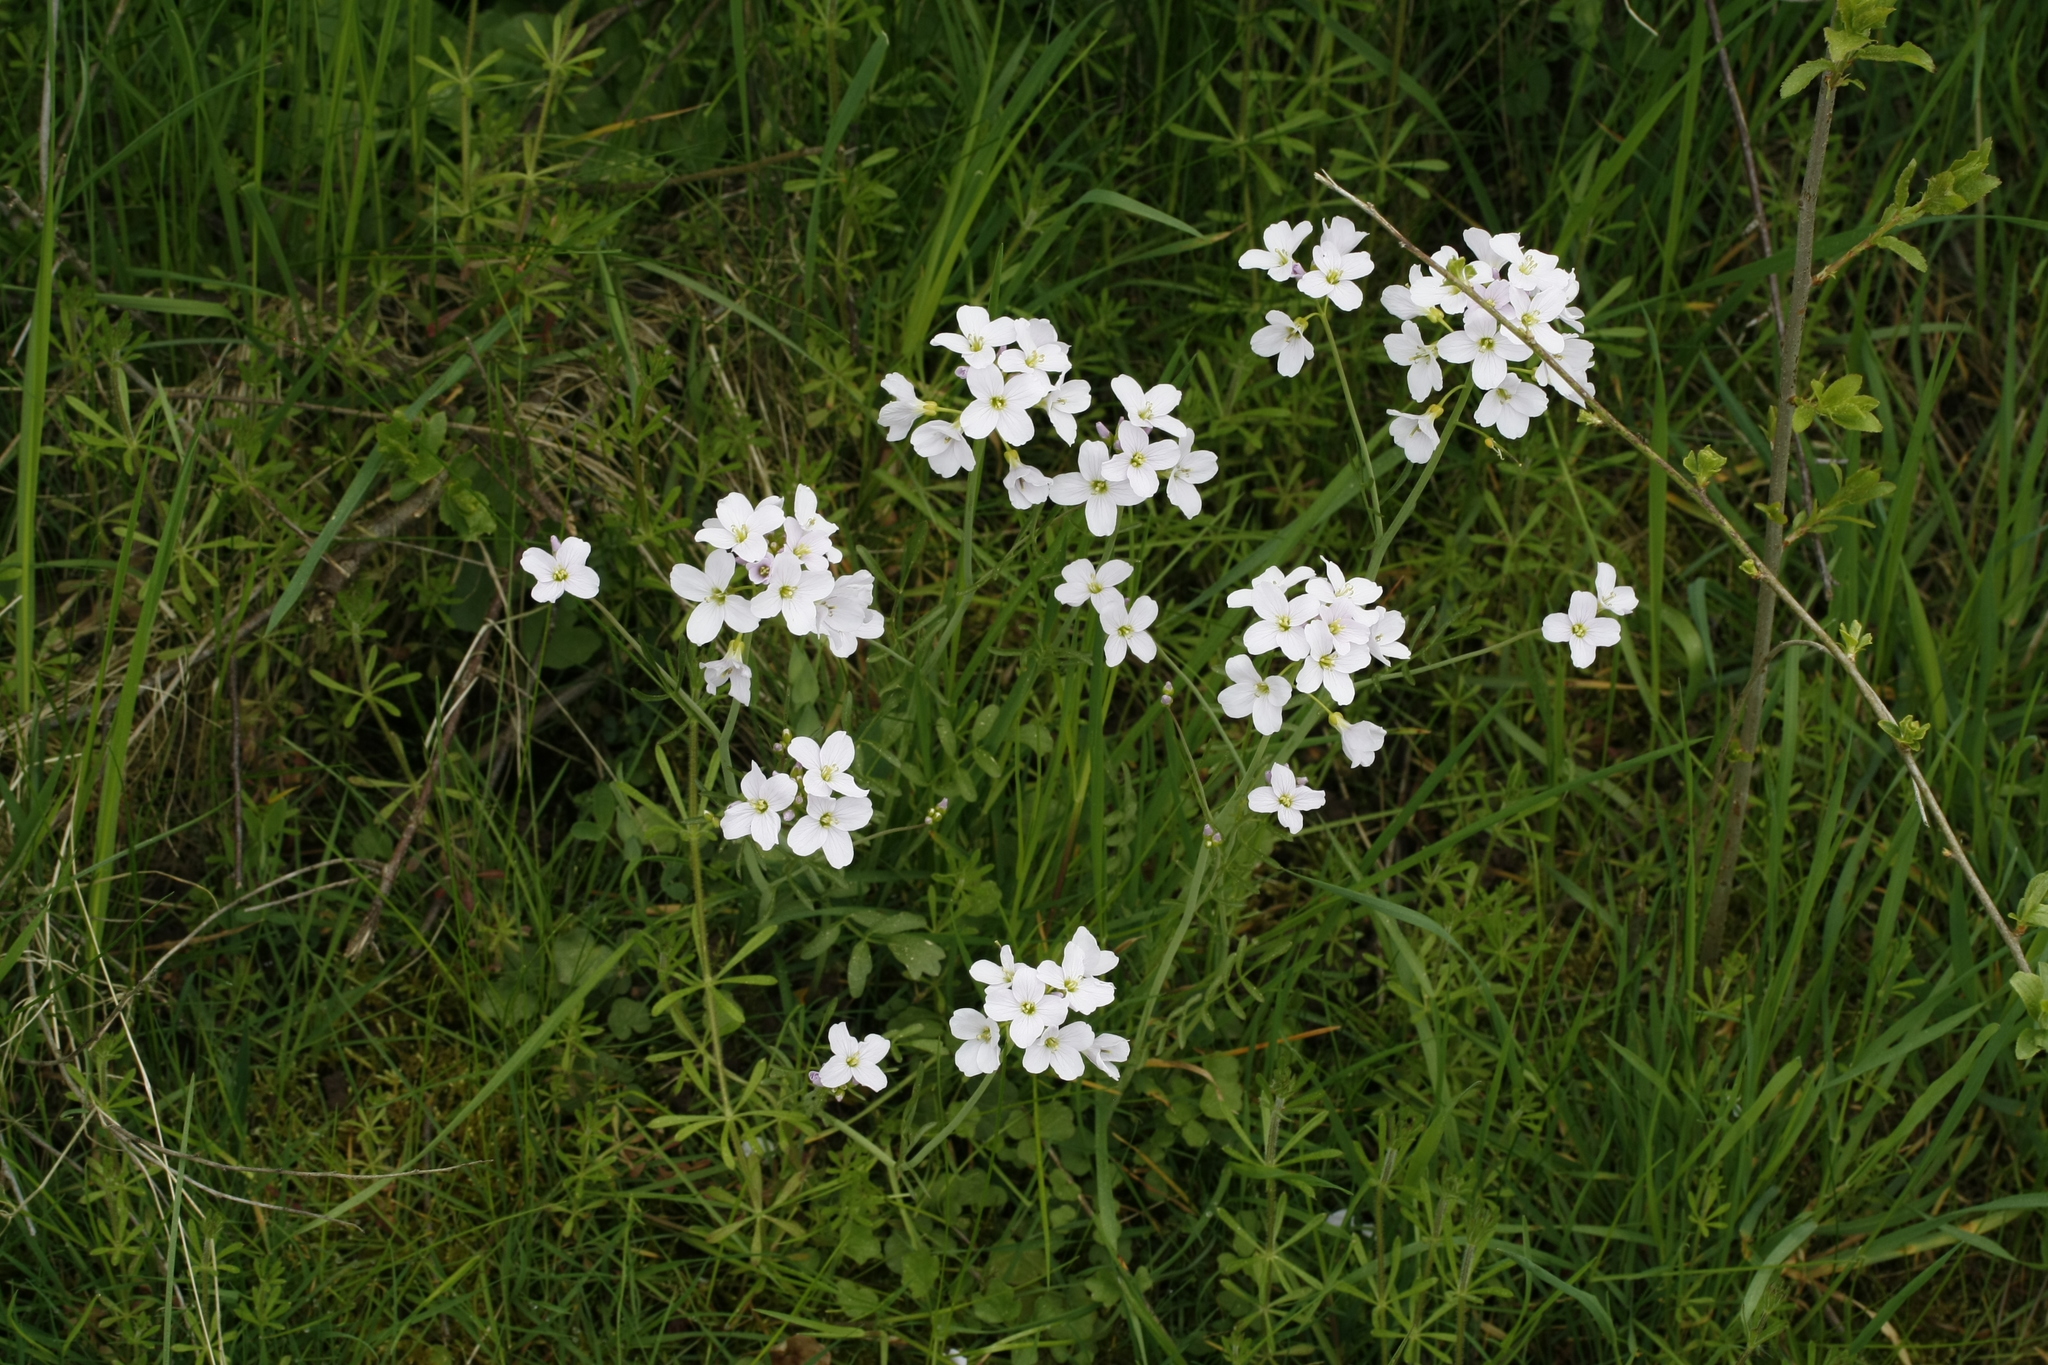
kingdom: Plantae
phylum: Tracheophyta
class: Magnoliopsida
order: Brassicales
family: Brassicaceae
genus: Cardamine
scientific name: Cardamine pratensis
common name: Cuckoo flower
